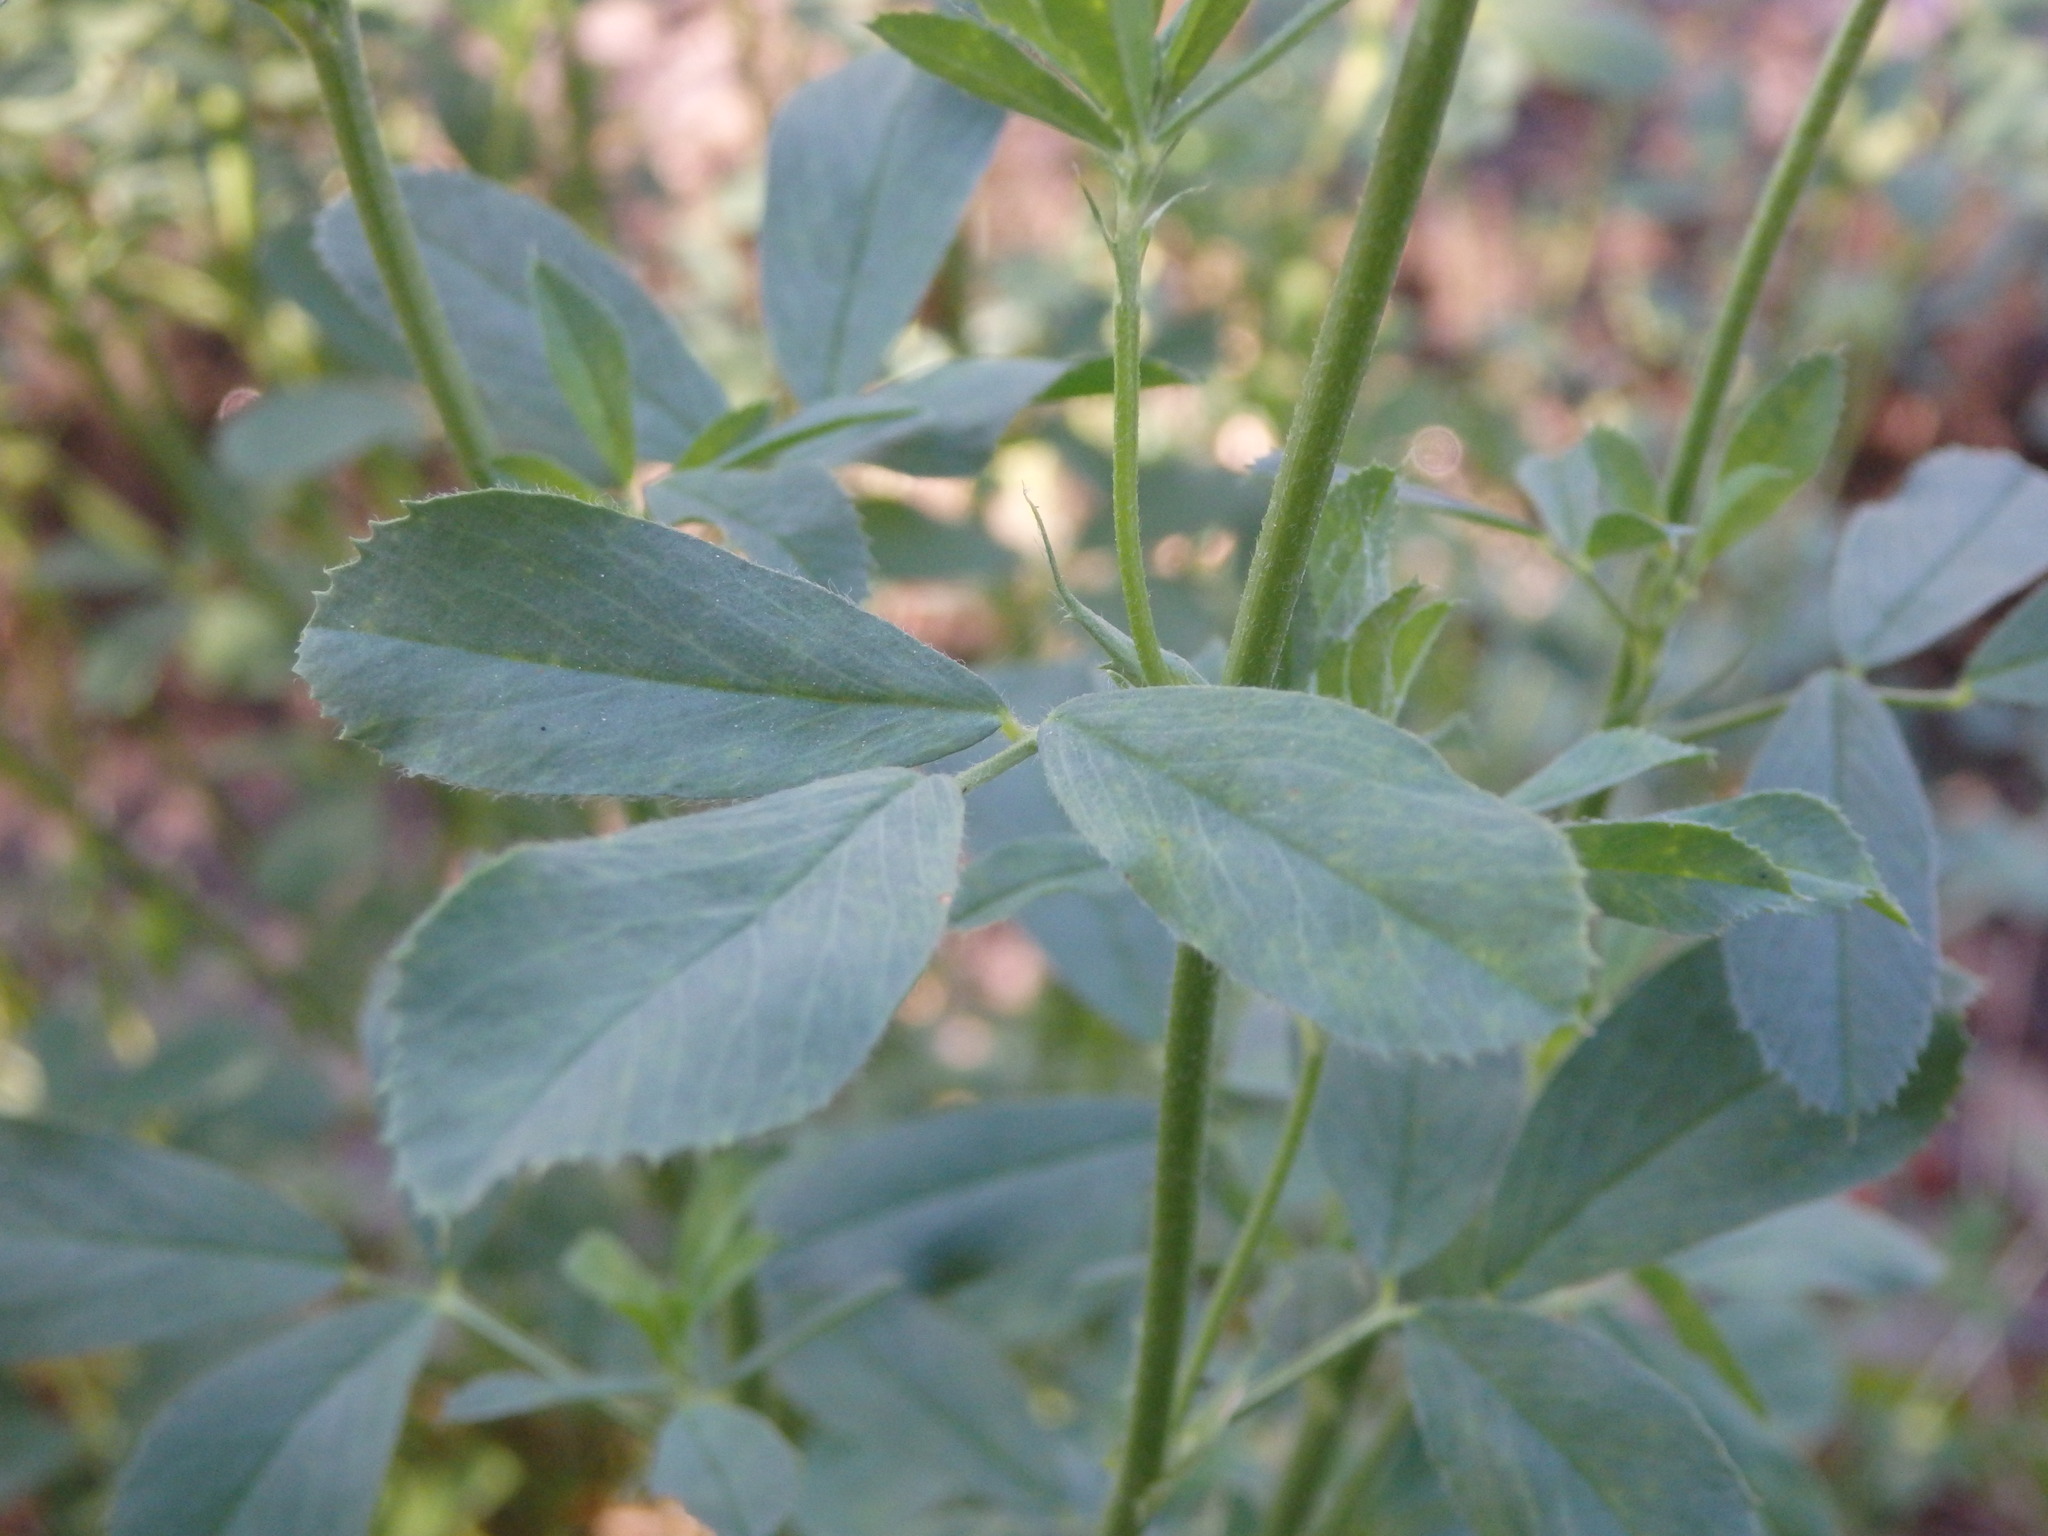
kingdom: Plantae
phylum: Tracheophyta
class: Magnoliopsida
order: Fabales
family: Fabaceae
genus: Medicago
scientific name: Medicago sativa
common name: Alfalfa
